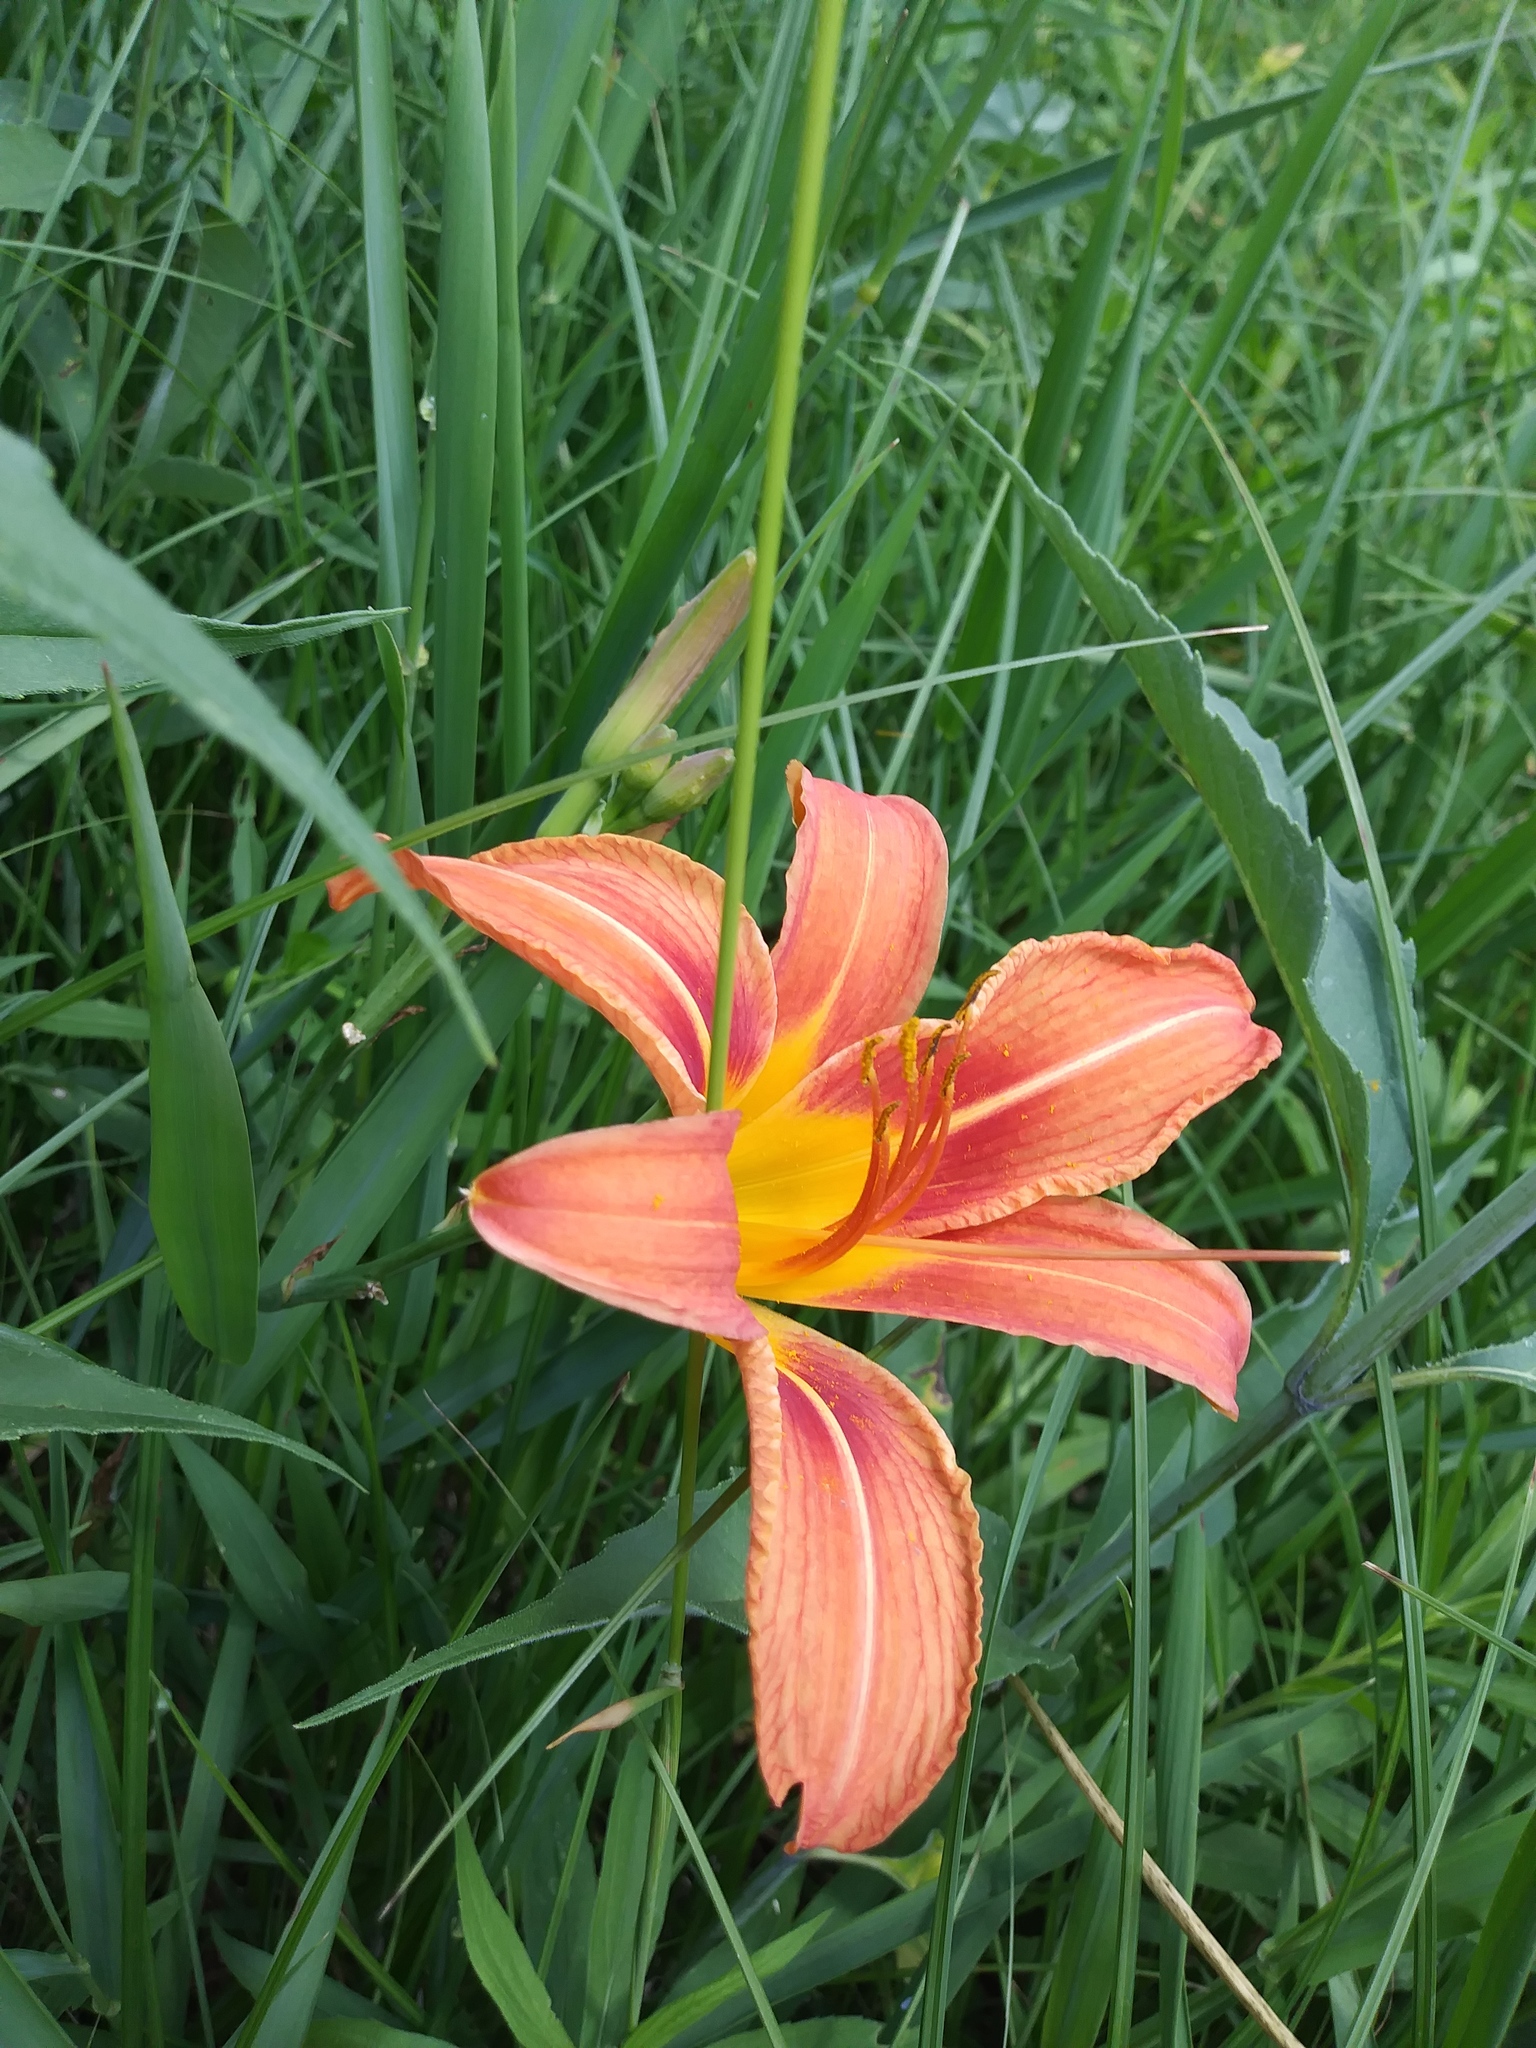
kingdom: Plantae
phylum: Tracheophyta
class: Liliopsida
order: Asparagales
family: Asphodelaceae
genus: Hemerocallis
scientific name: Hemerocallis fulva
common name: Orange day-lily
